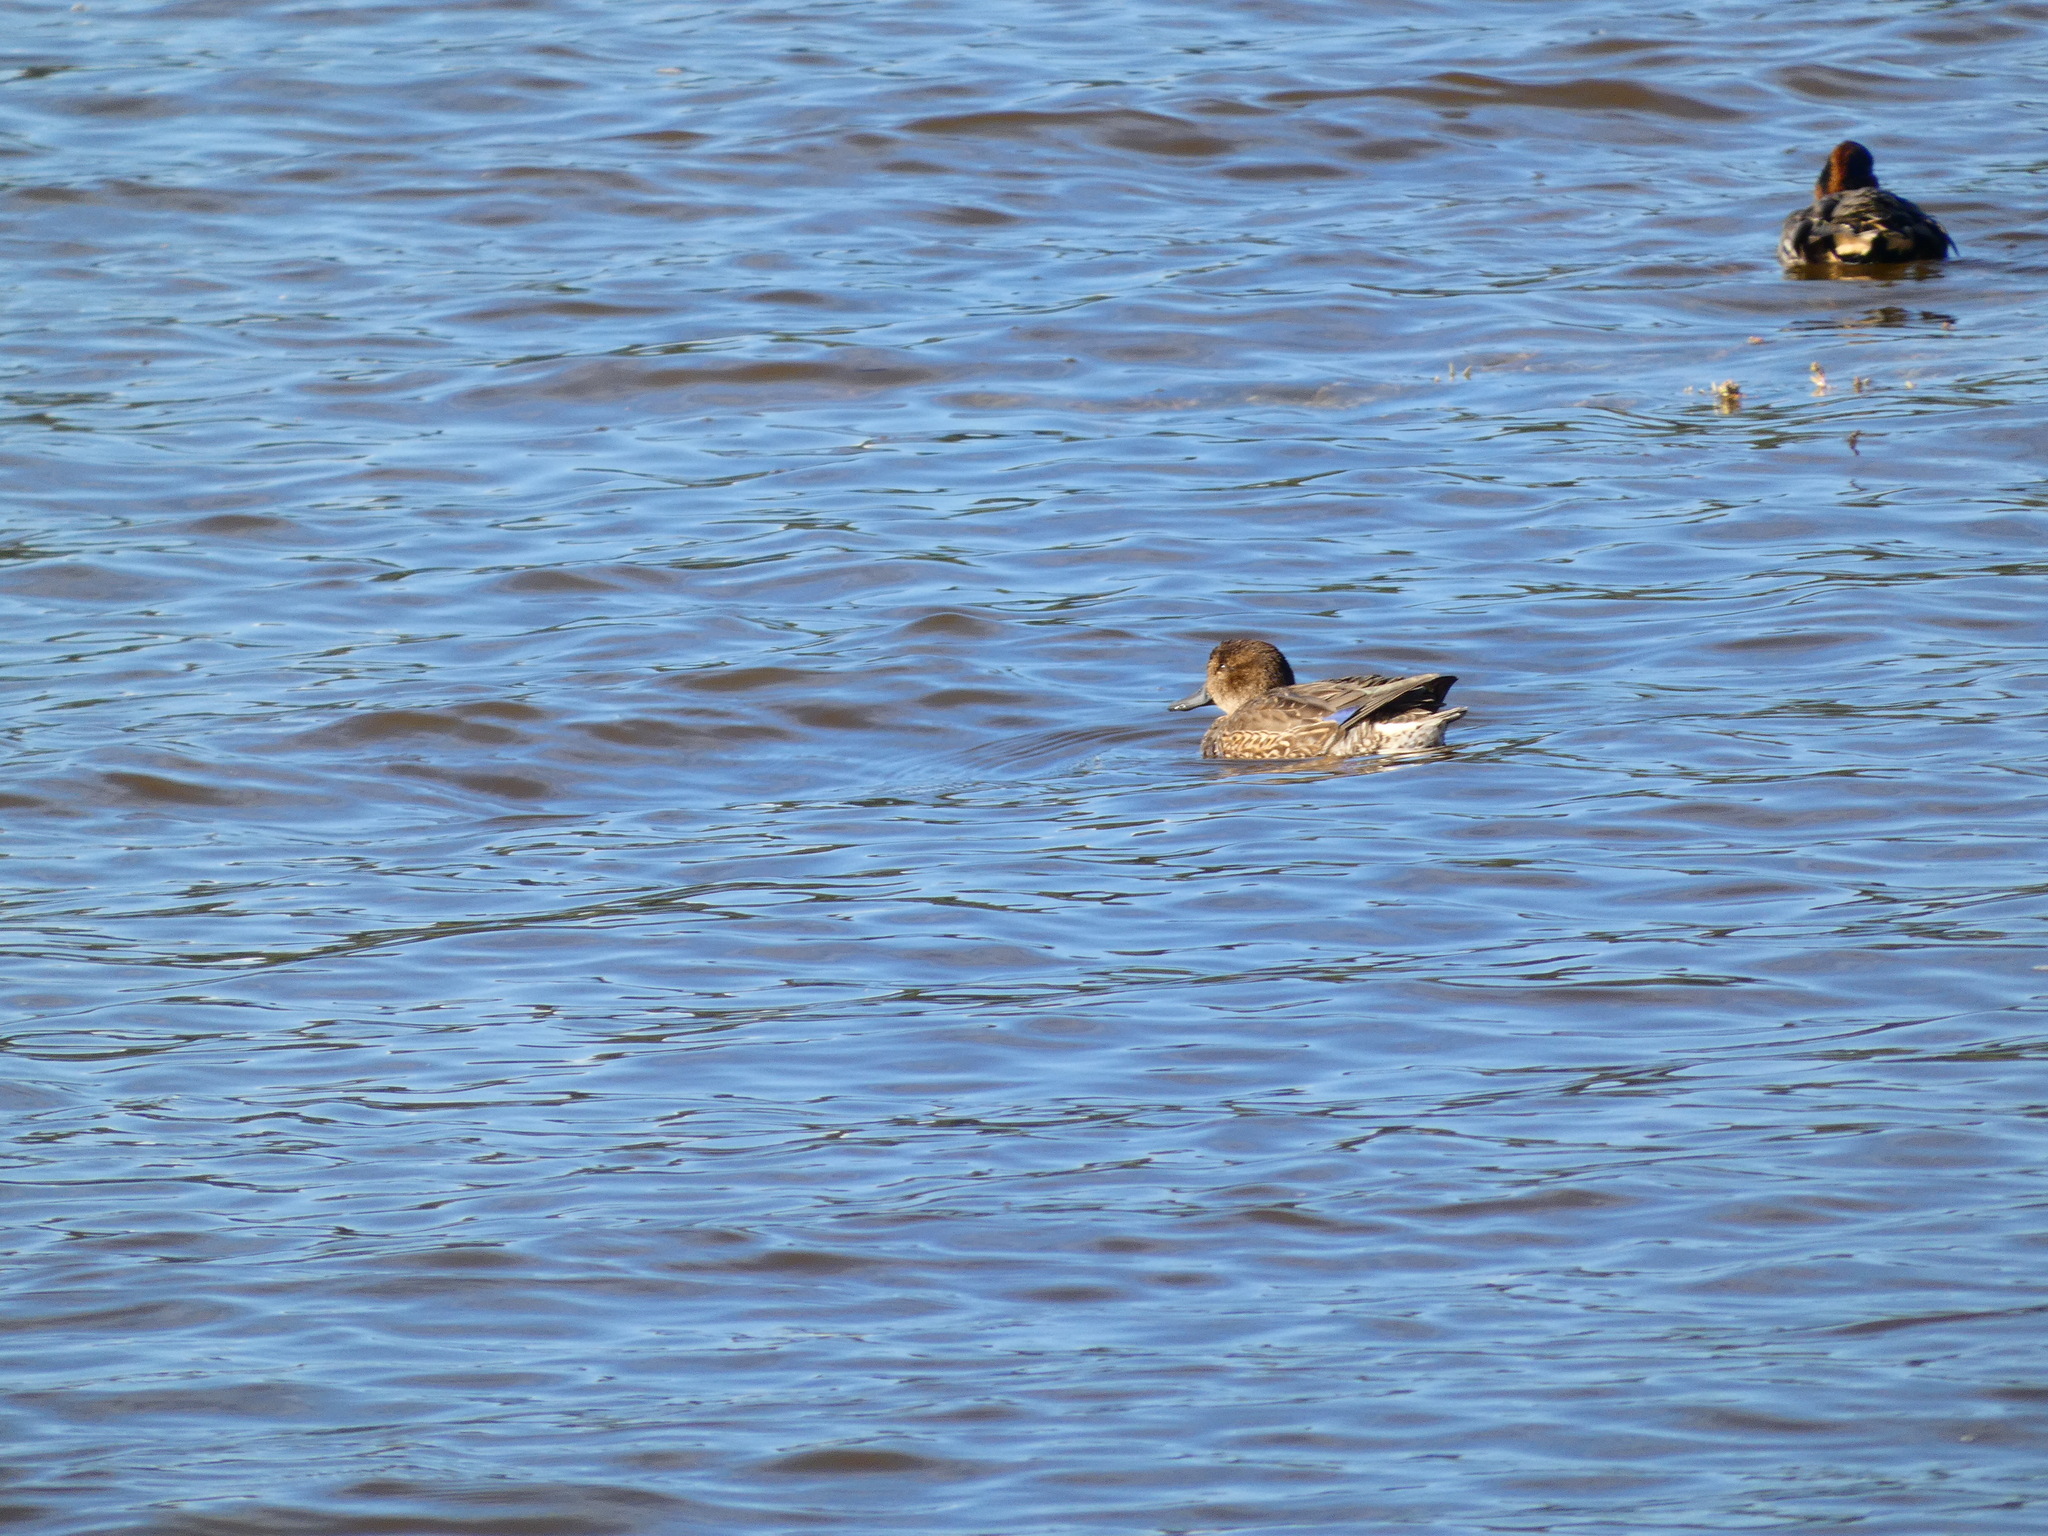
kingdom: Animalia
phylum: Chordata
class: Aves
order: Anseriformes
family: Anatidae
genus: Anas
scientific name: Anas crecca
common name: Eurasian teal
